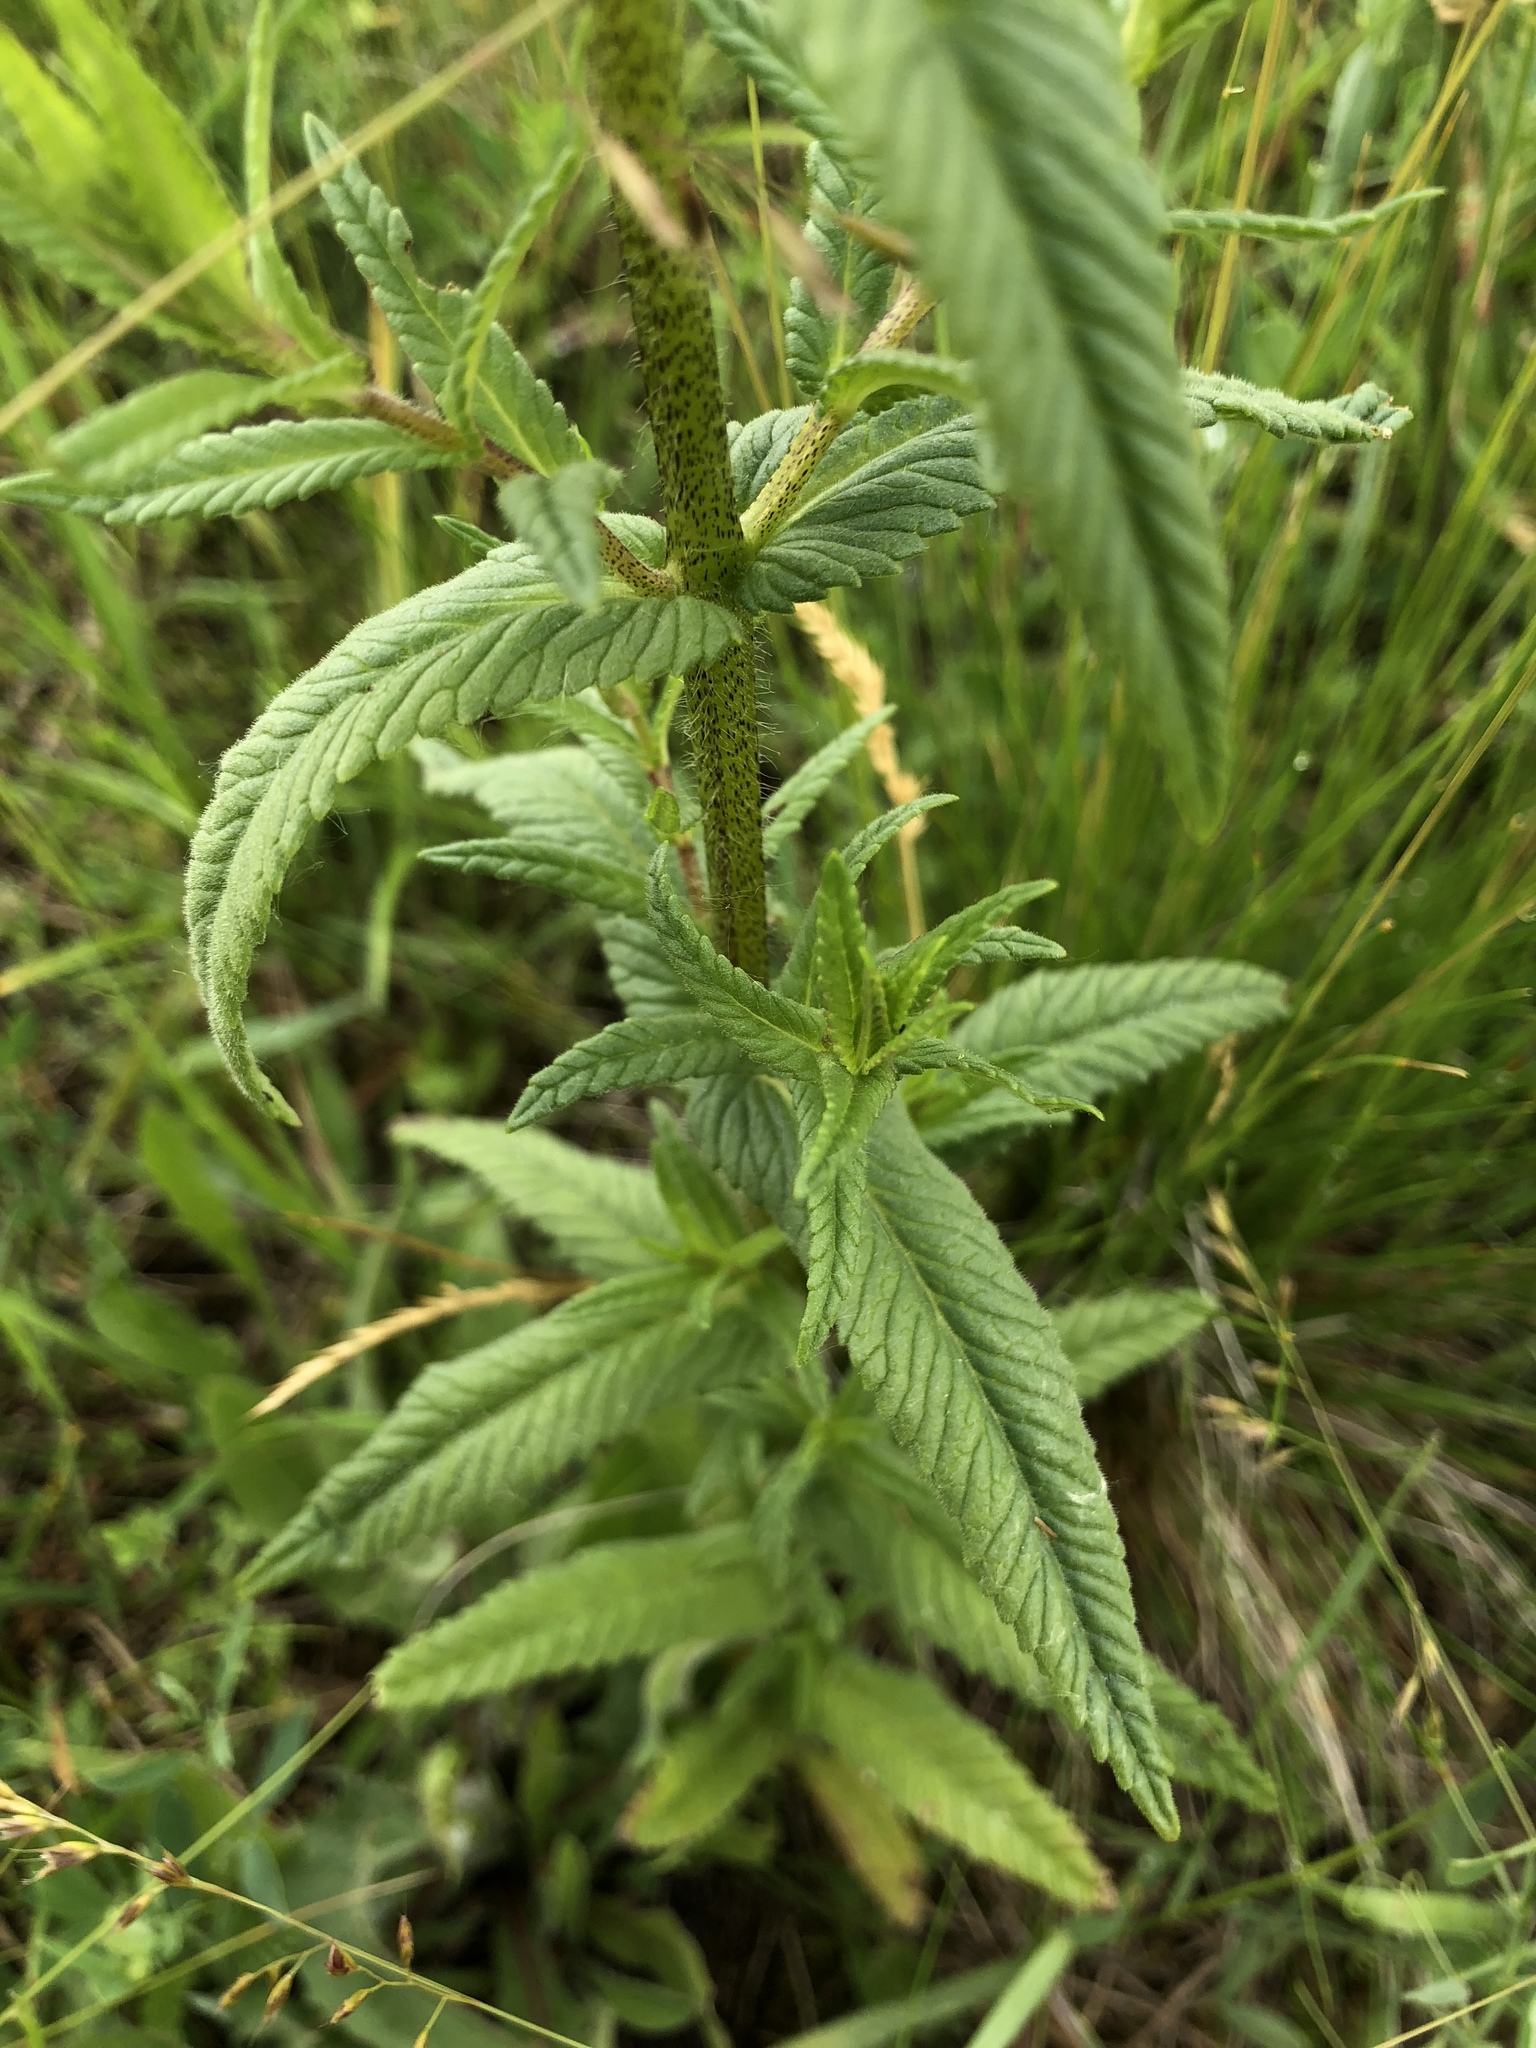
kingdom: Plantae
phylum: Tracheophyta
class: Magnoliopsida
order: Lamiales
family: Orobanchaceae
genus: Rhinanthus
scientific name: Rhinanthus alectorolophus
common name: Greater yellow-rattle
